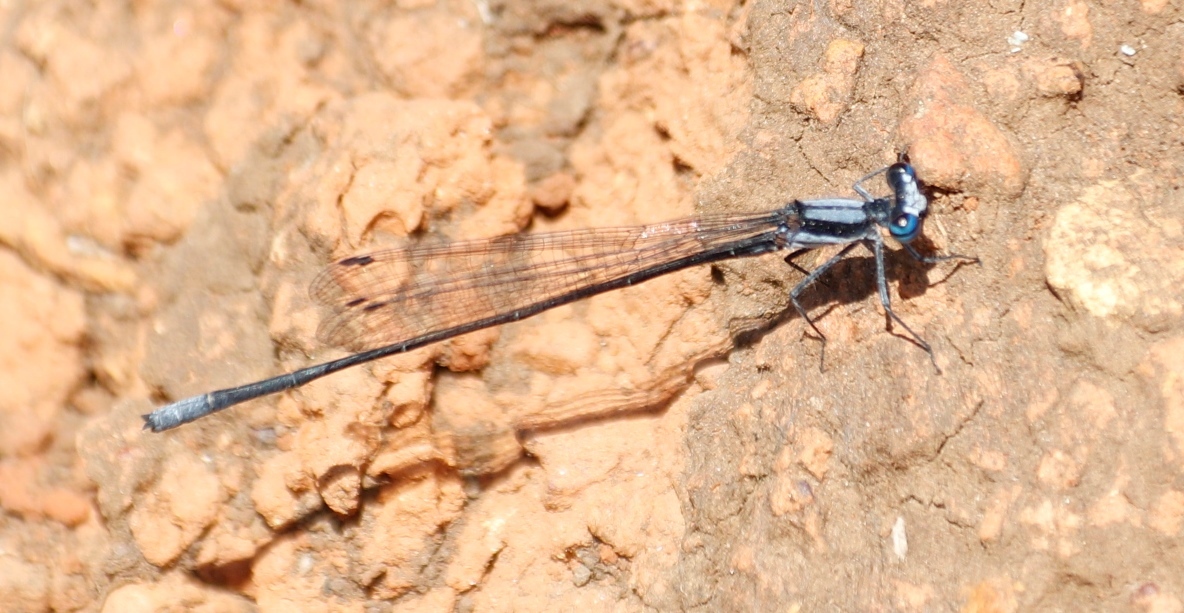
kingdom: Animalia
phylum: Arthropoda
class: Insecta
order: Odonata
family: Platycnemididae
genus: Elattoneura
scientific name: Elattoneura glauca
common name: Common threadtail
